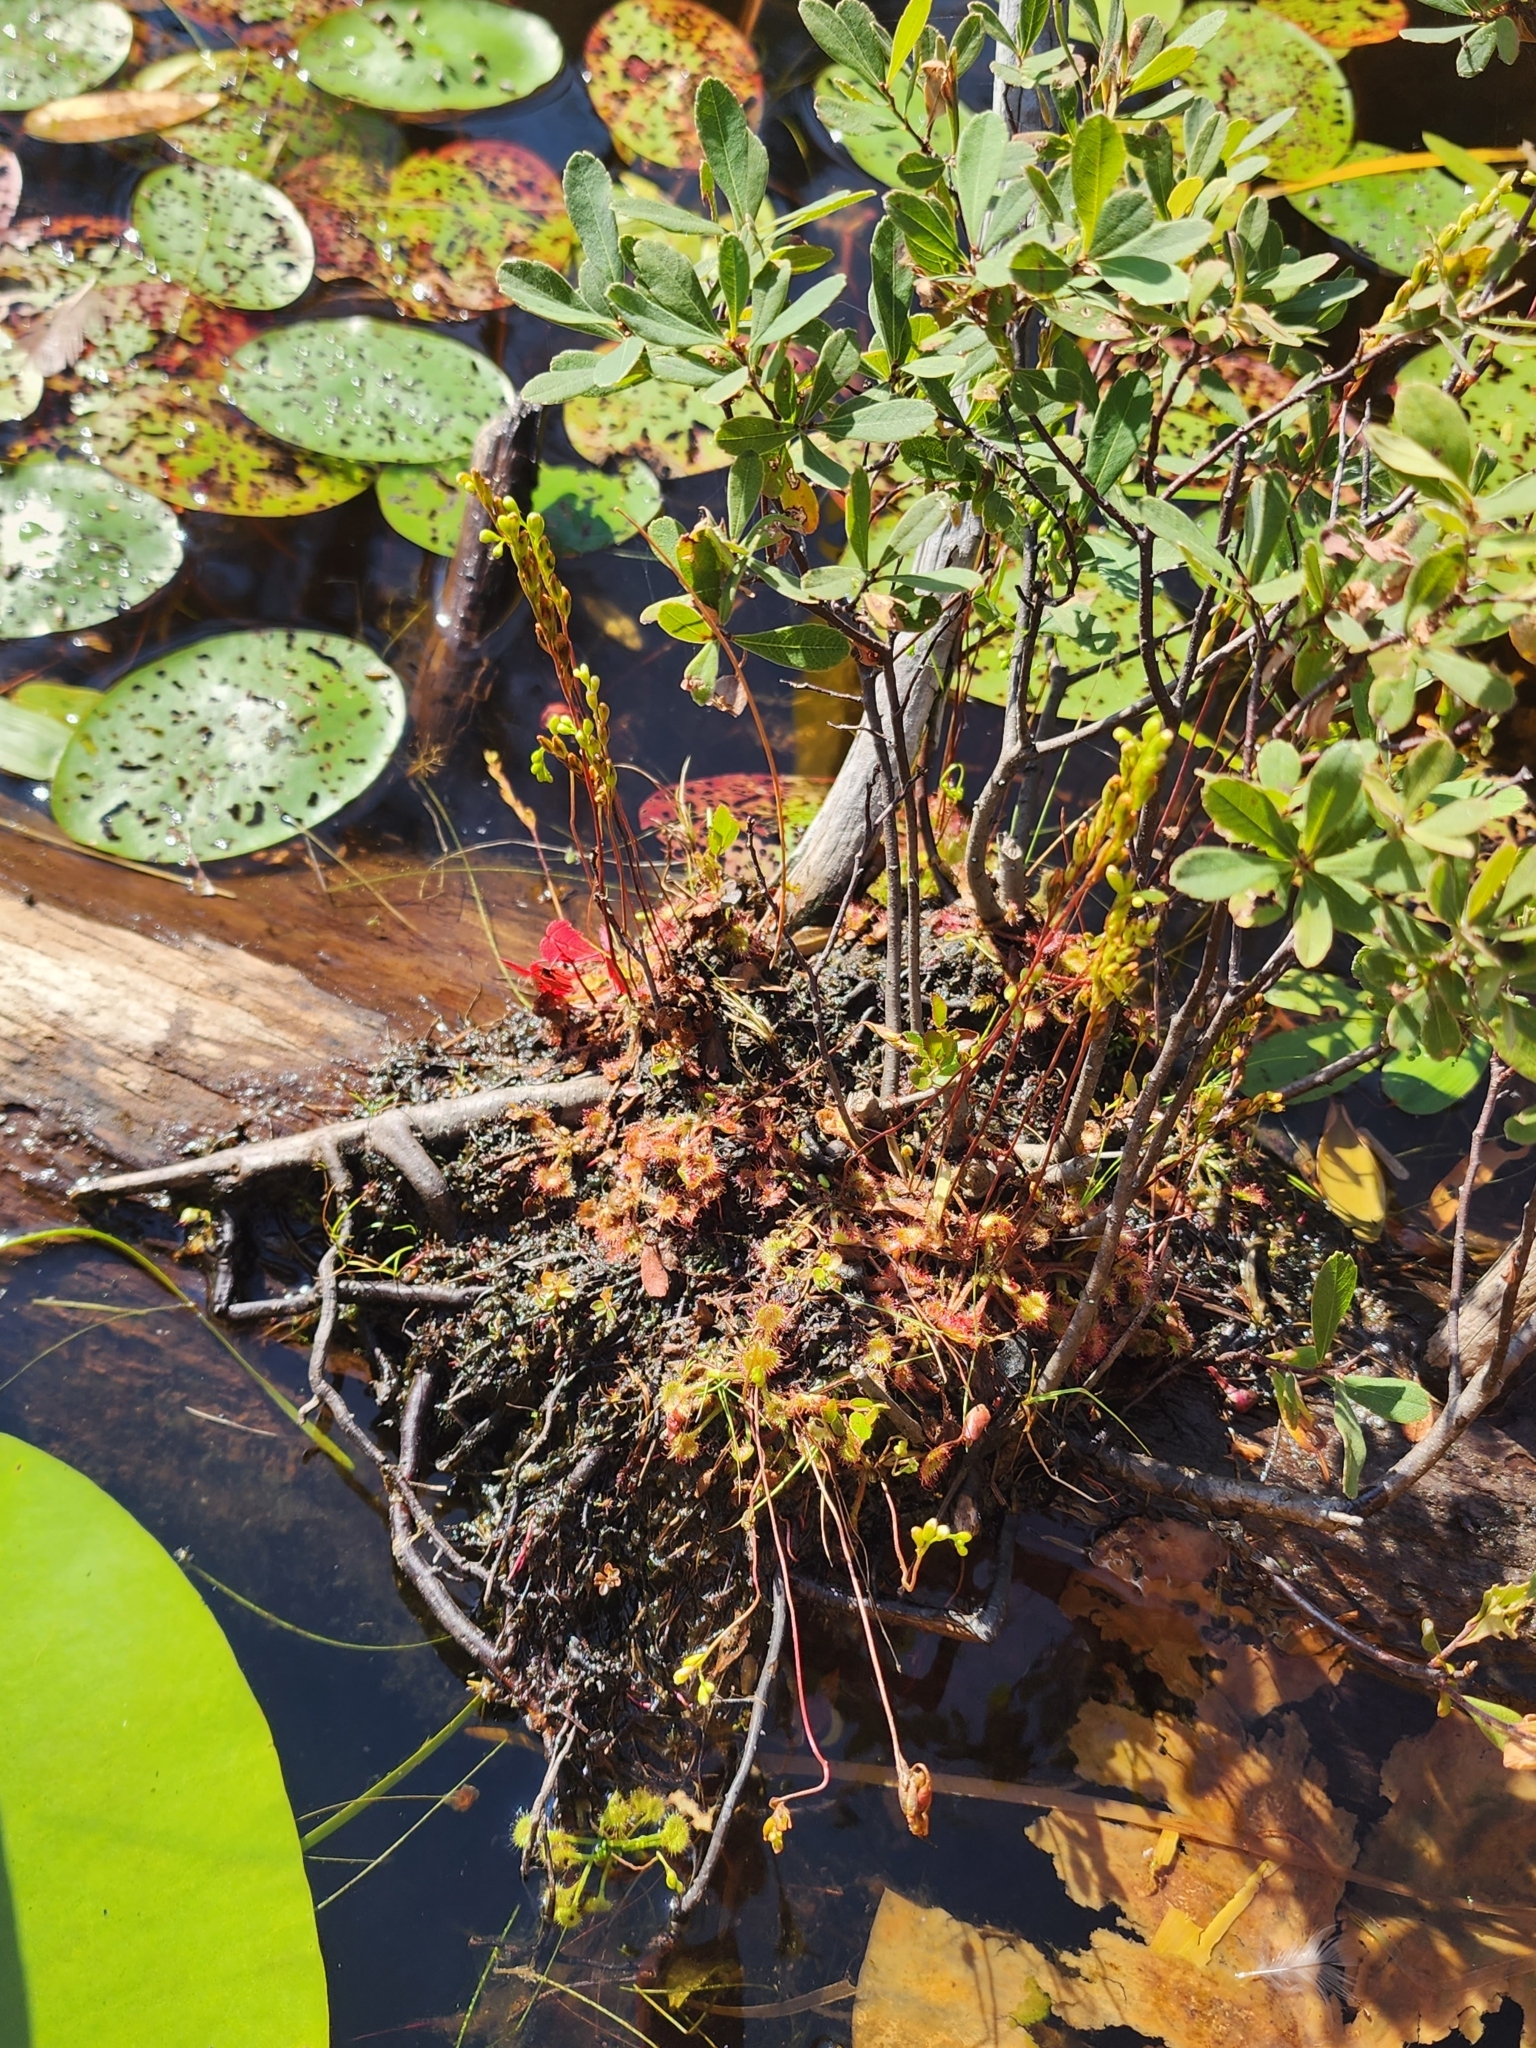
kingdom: Plantae
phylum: Tracheophyta
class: Magnoliopsida
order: Caryophyllales
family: Droseraceae
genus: Drosera
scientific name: Drosera rotundifolia
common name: Round-leaved sundew
